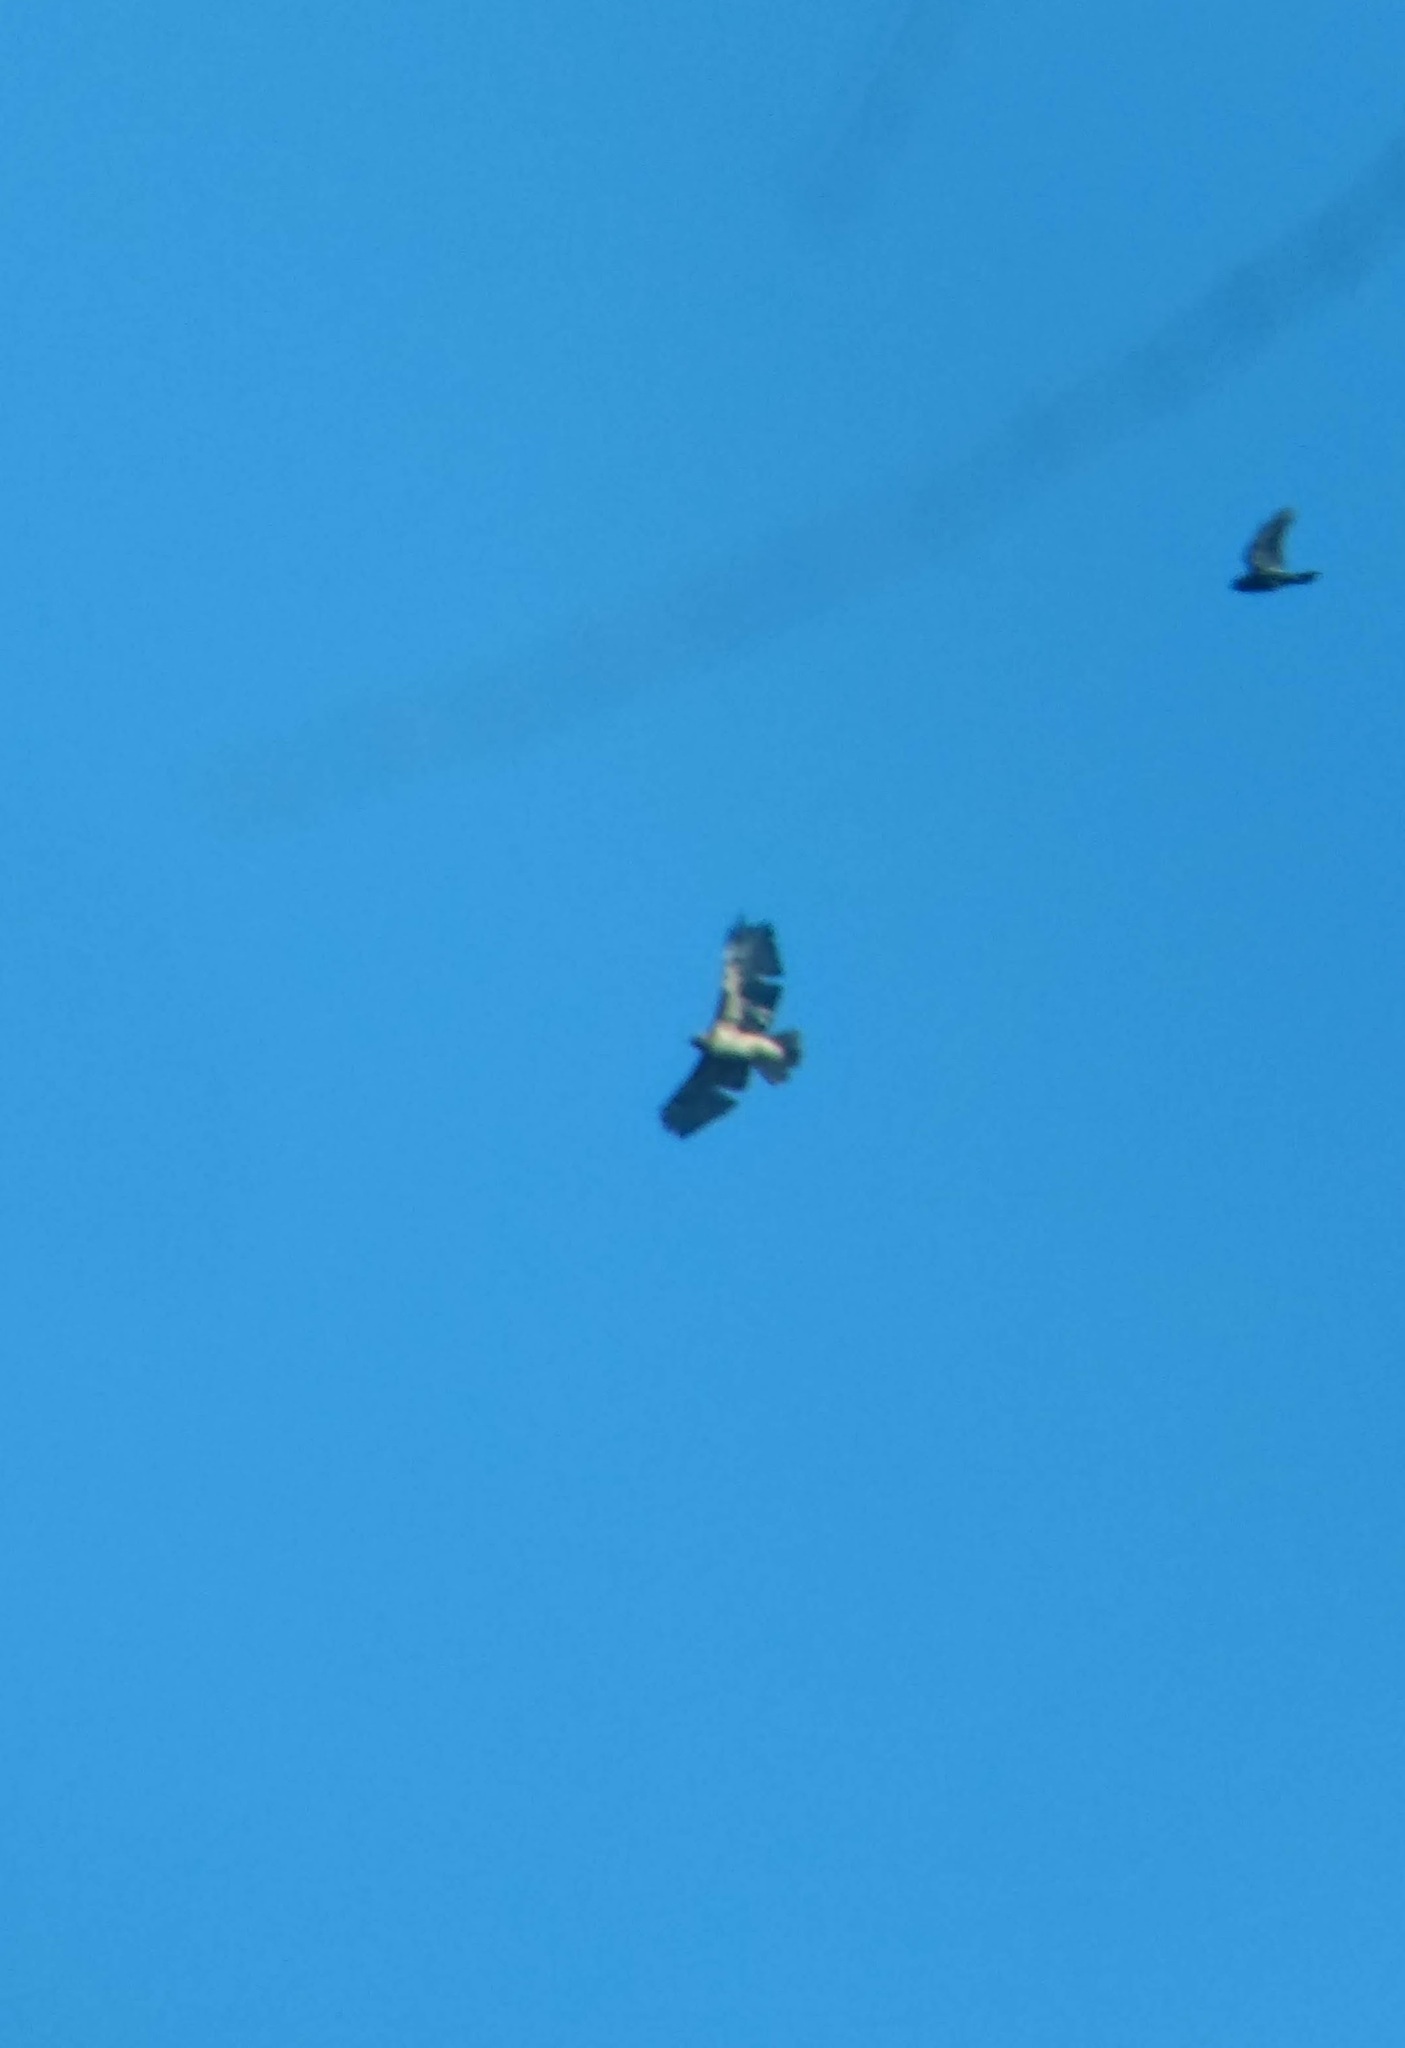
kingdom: Animalia
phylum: Chordata
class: Aves
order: Accipitriformes
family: Accipitridae
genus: Buteo
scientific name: Buteo jamaicensis
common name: Red-tailed hawk
